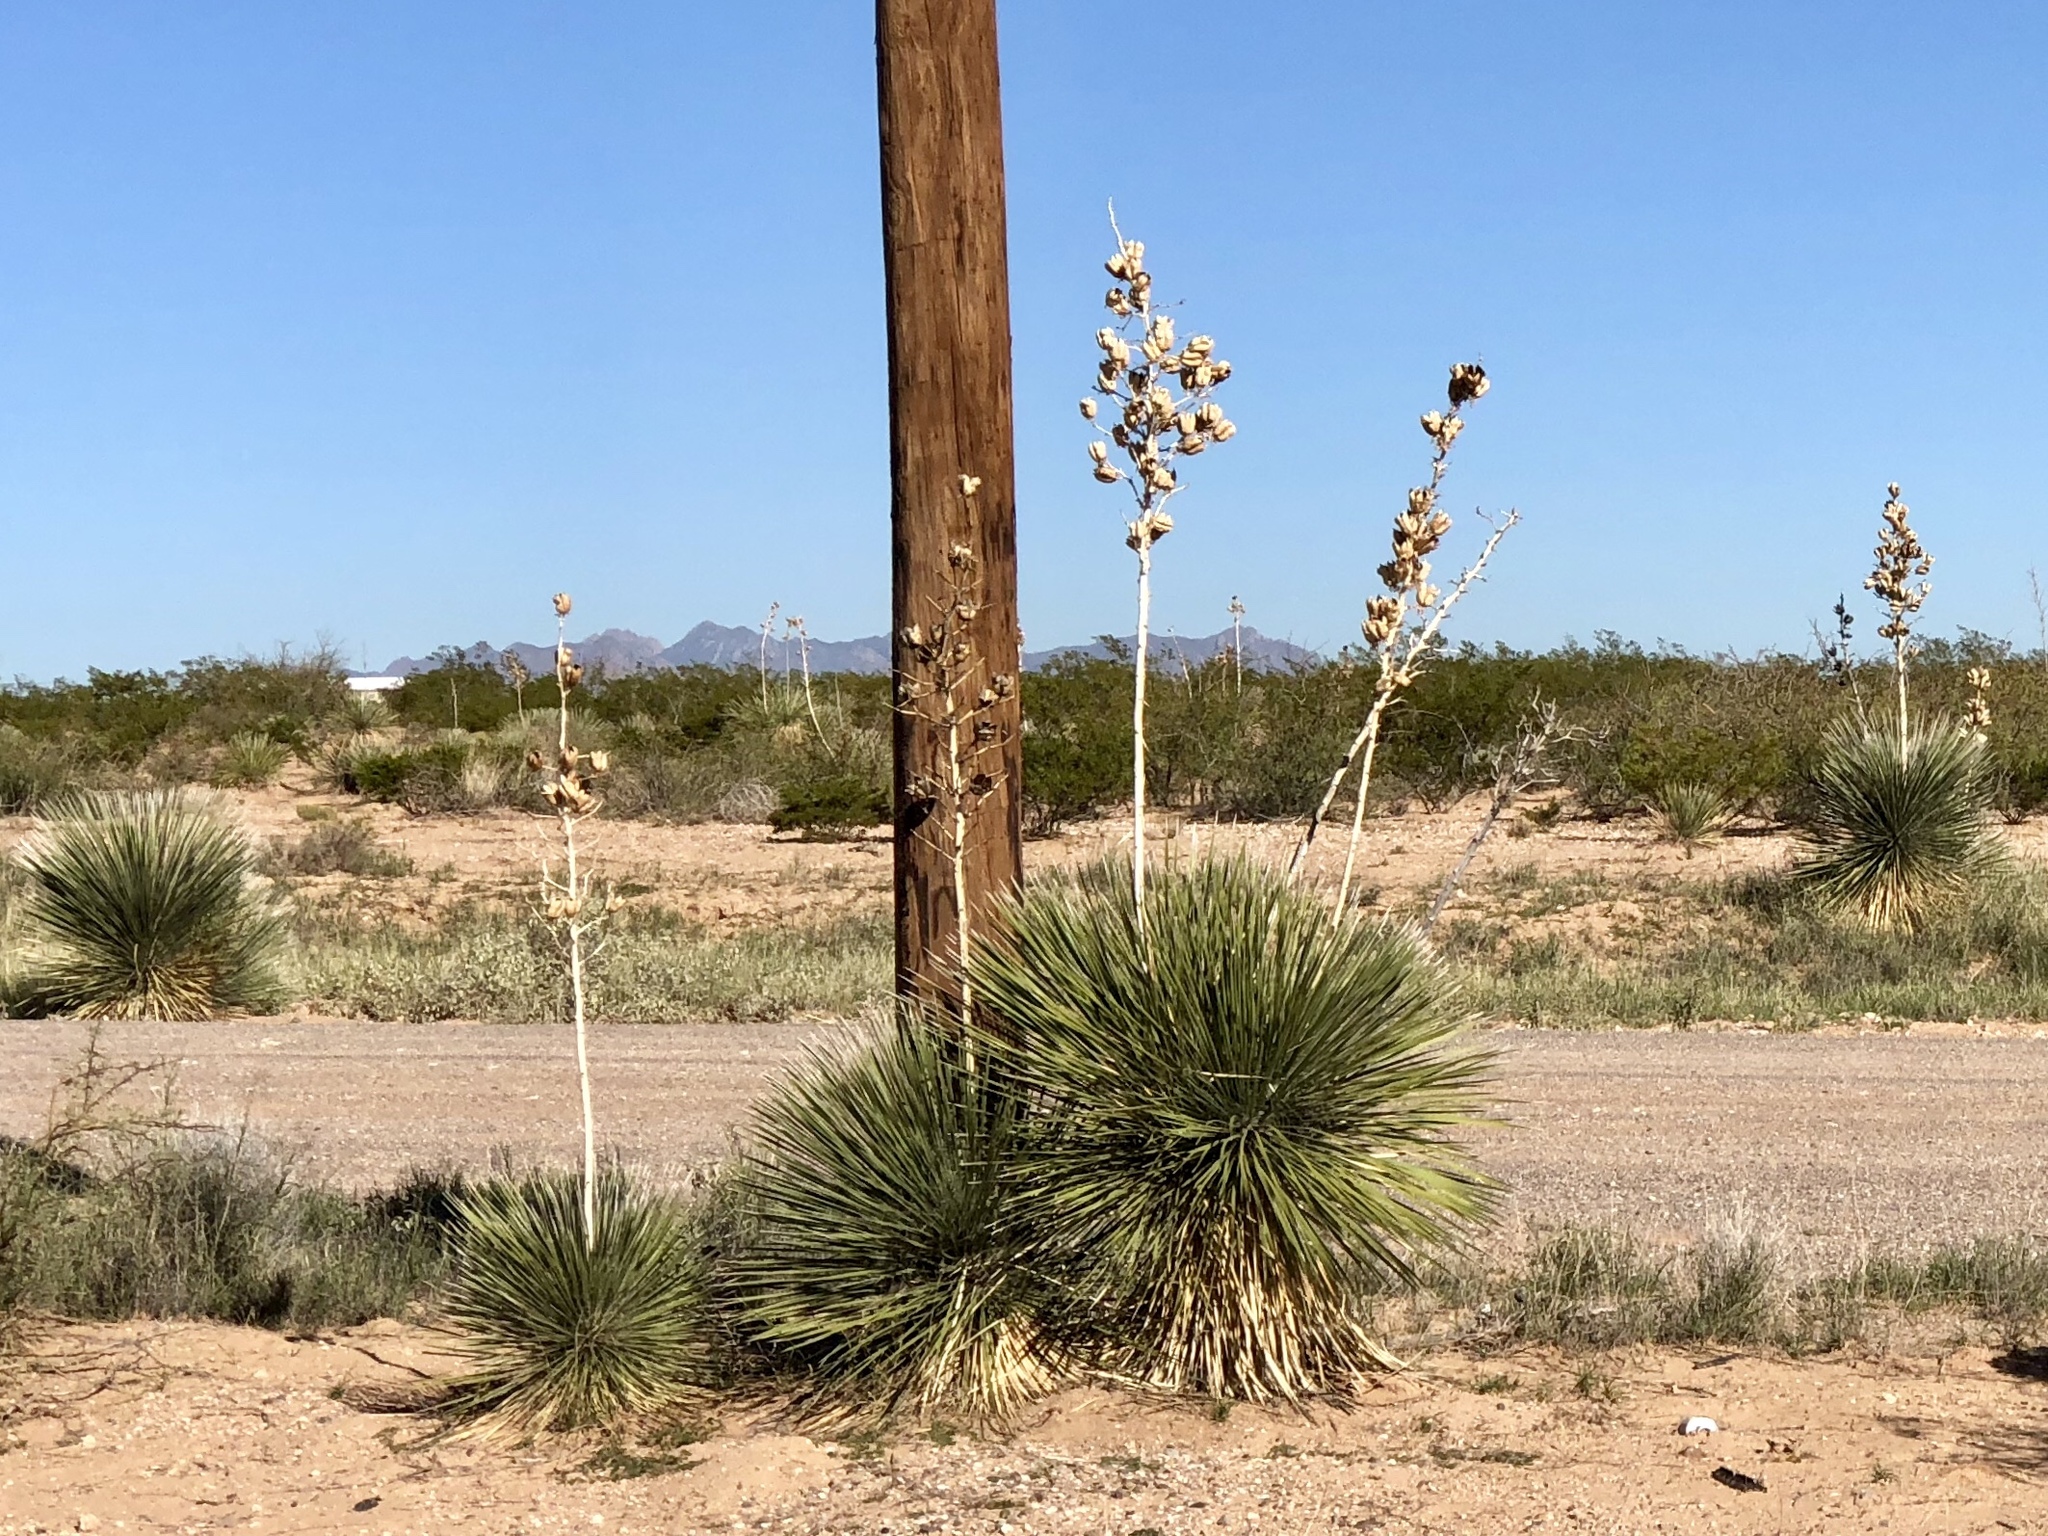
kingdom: Plantae
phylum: Tracheophyta
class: Liliopsida
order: Asparagales
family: Asparagaceae
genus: Yucca
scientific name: Yucca elata
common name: Palmella
